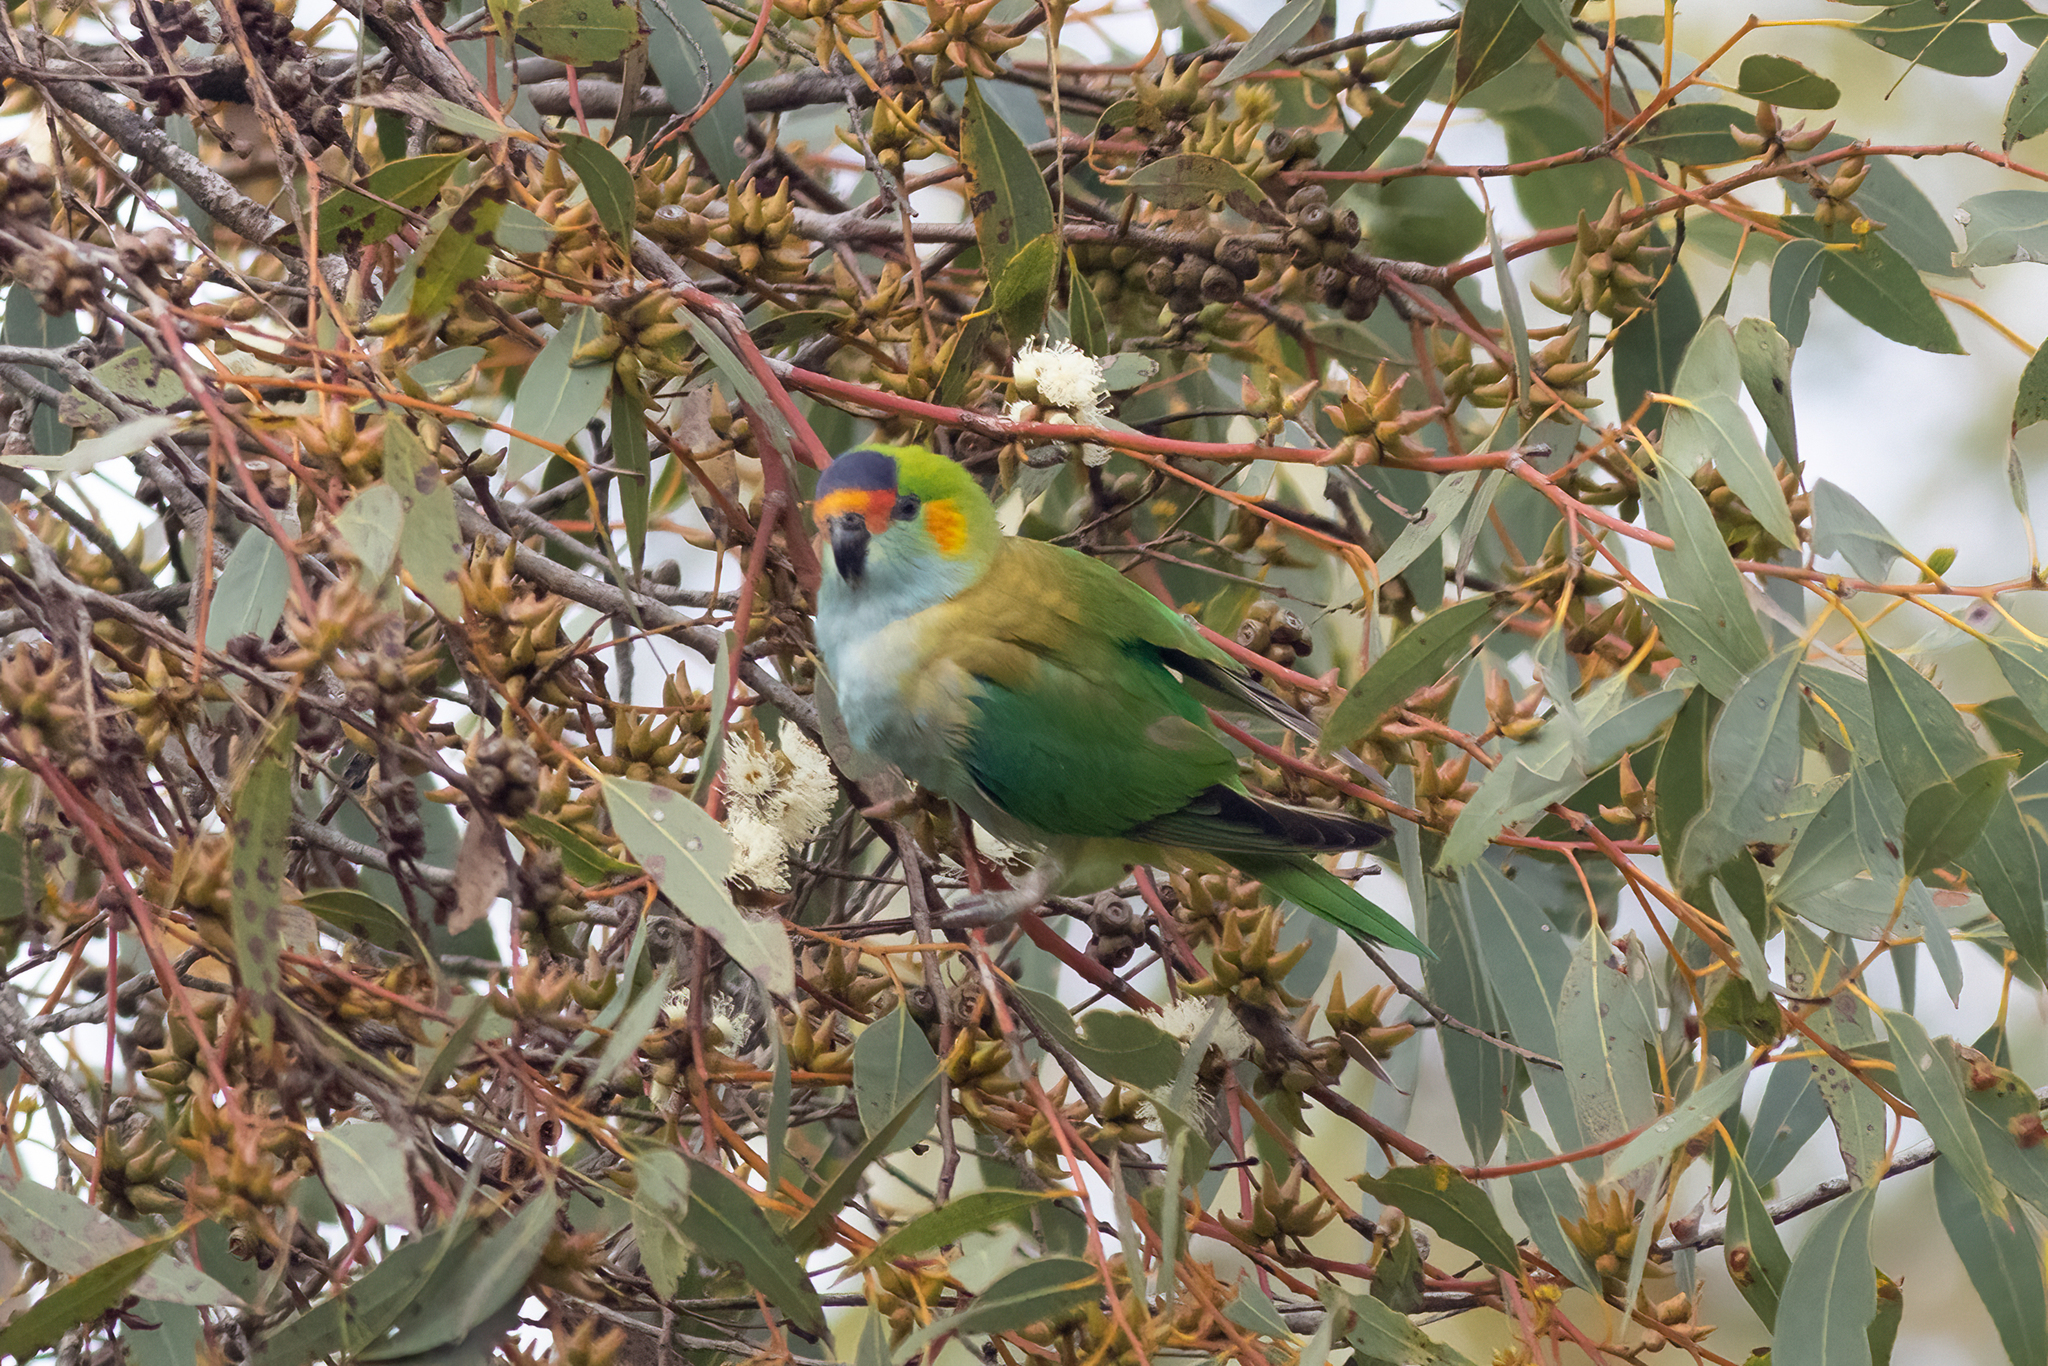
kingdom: Animalia
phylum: Chordata
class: Aves
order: Psittaciformes
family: Psittaculidae
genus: Parvipsitta
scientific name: Parvipsitta porphyrocephala
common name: Purple-crowned lorikeet
